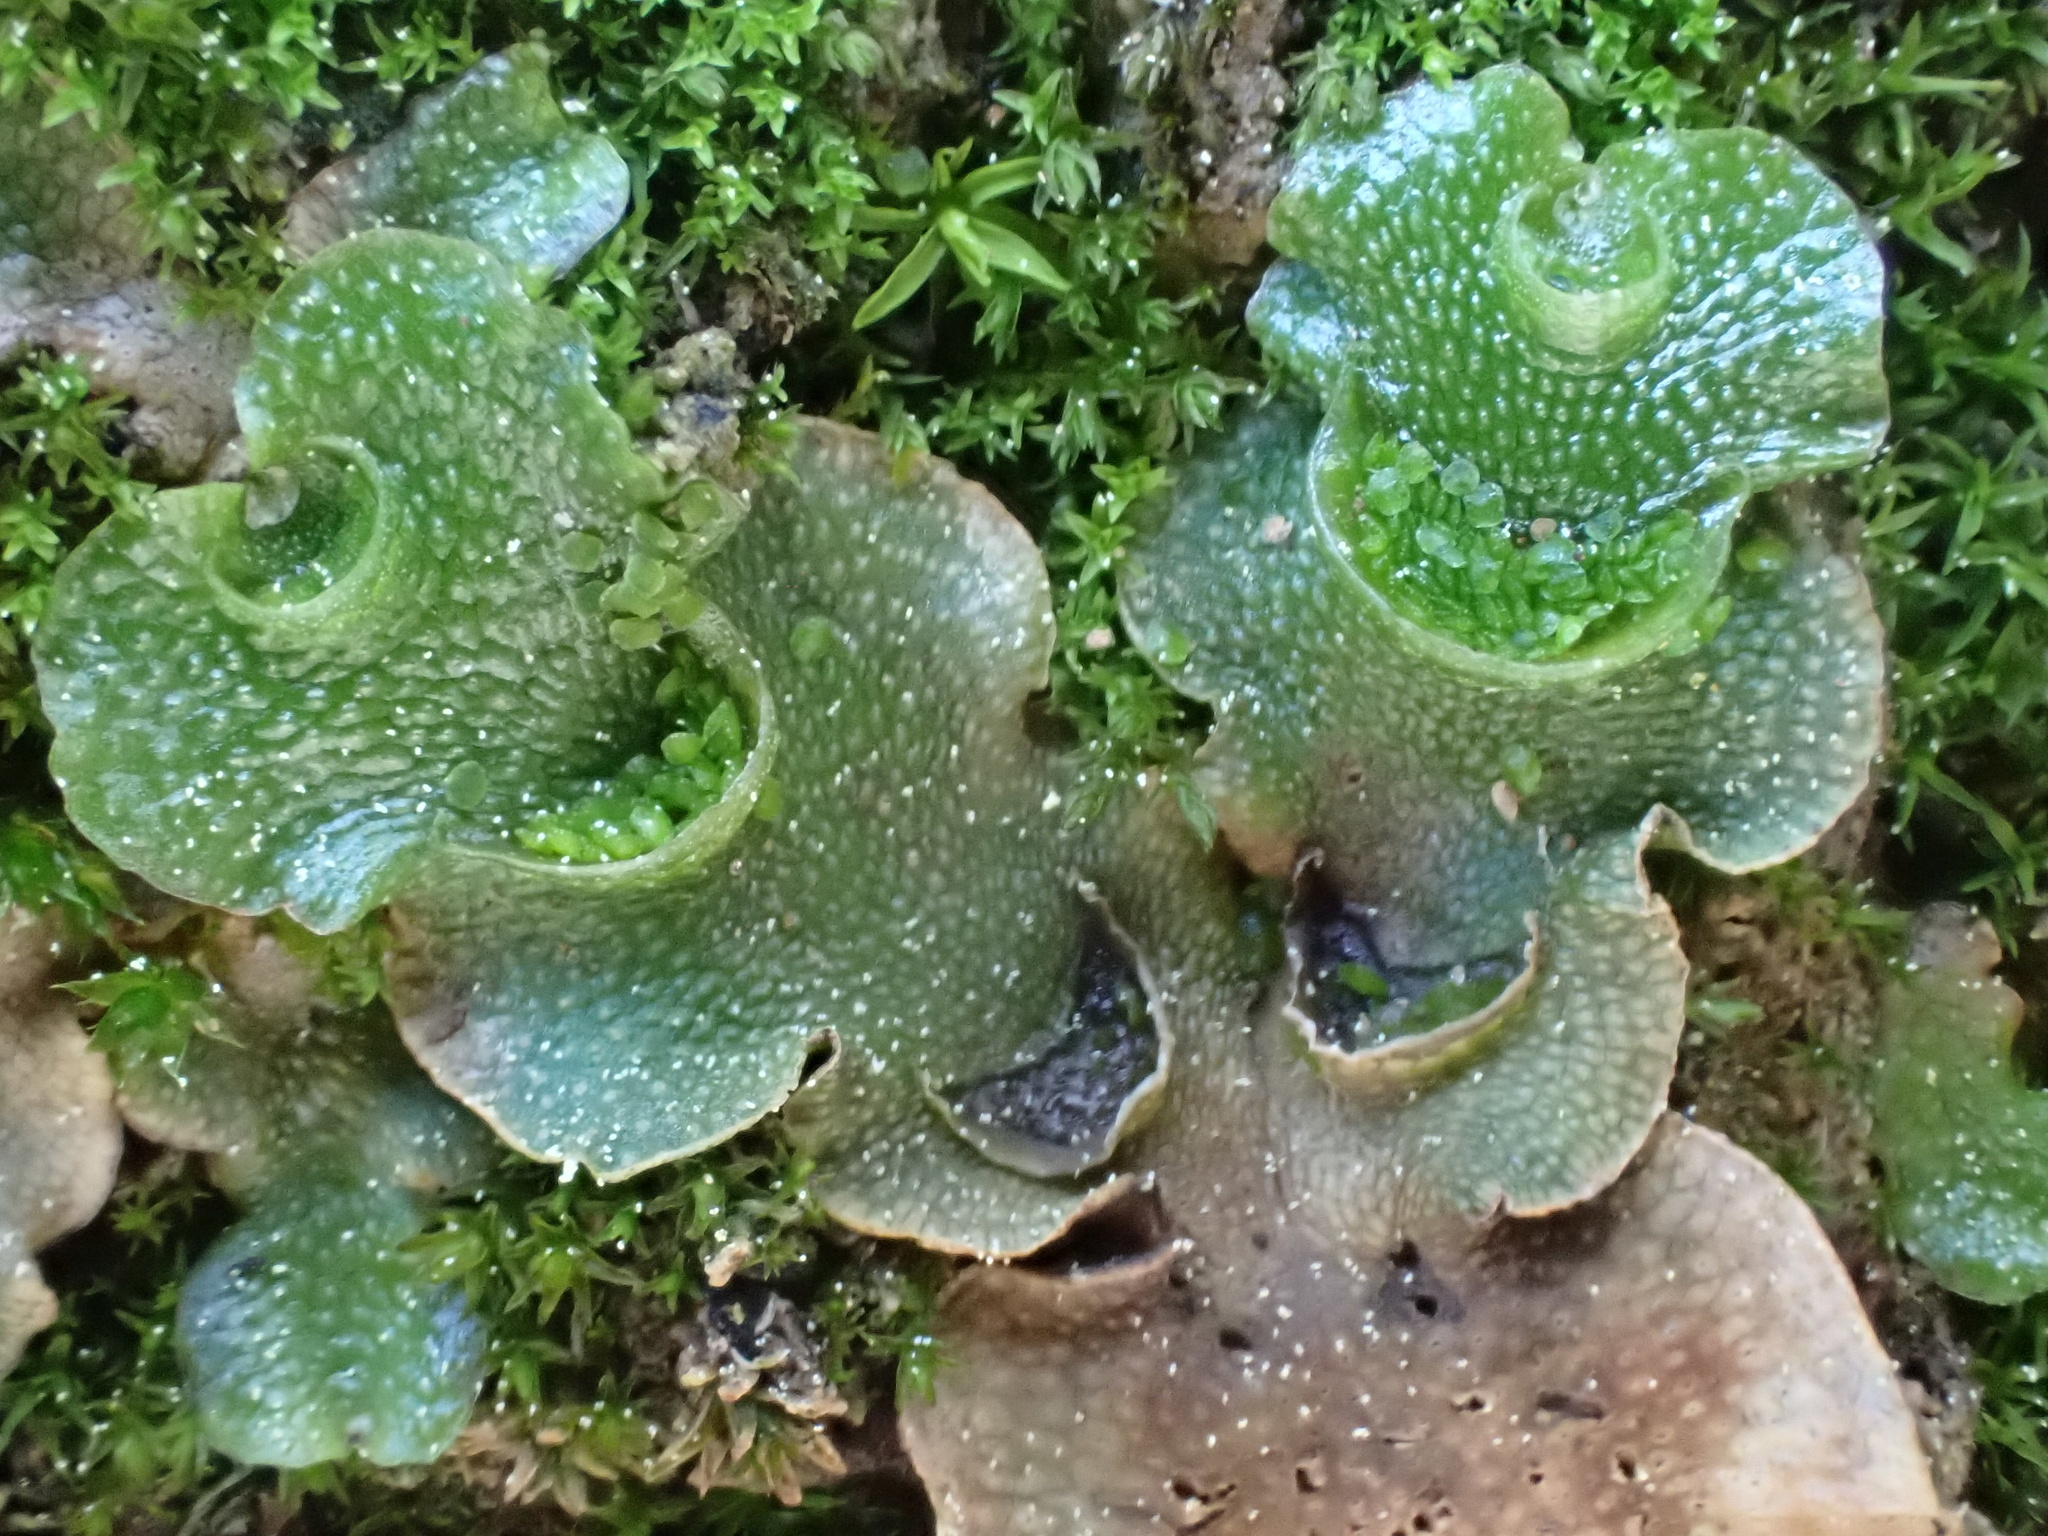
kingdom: Plantae
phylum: Marchantiophyta
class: Marchantiopsida
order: Lunulariales
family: Lunulariaceae
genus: Lunularia
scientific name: Lunularia cruciata
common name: Crescent-cup liverwort
